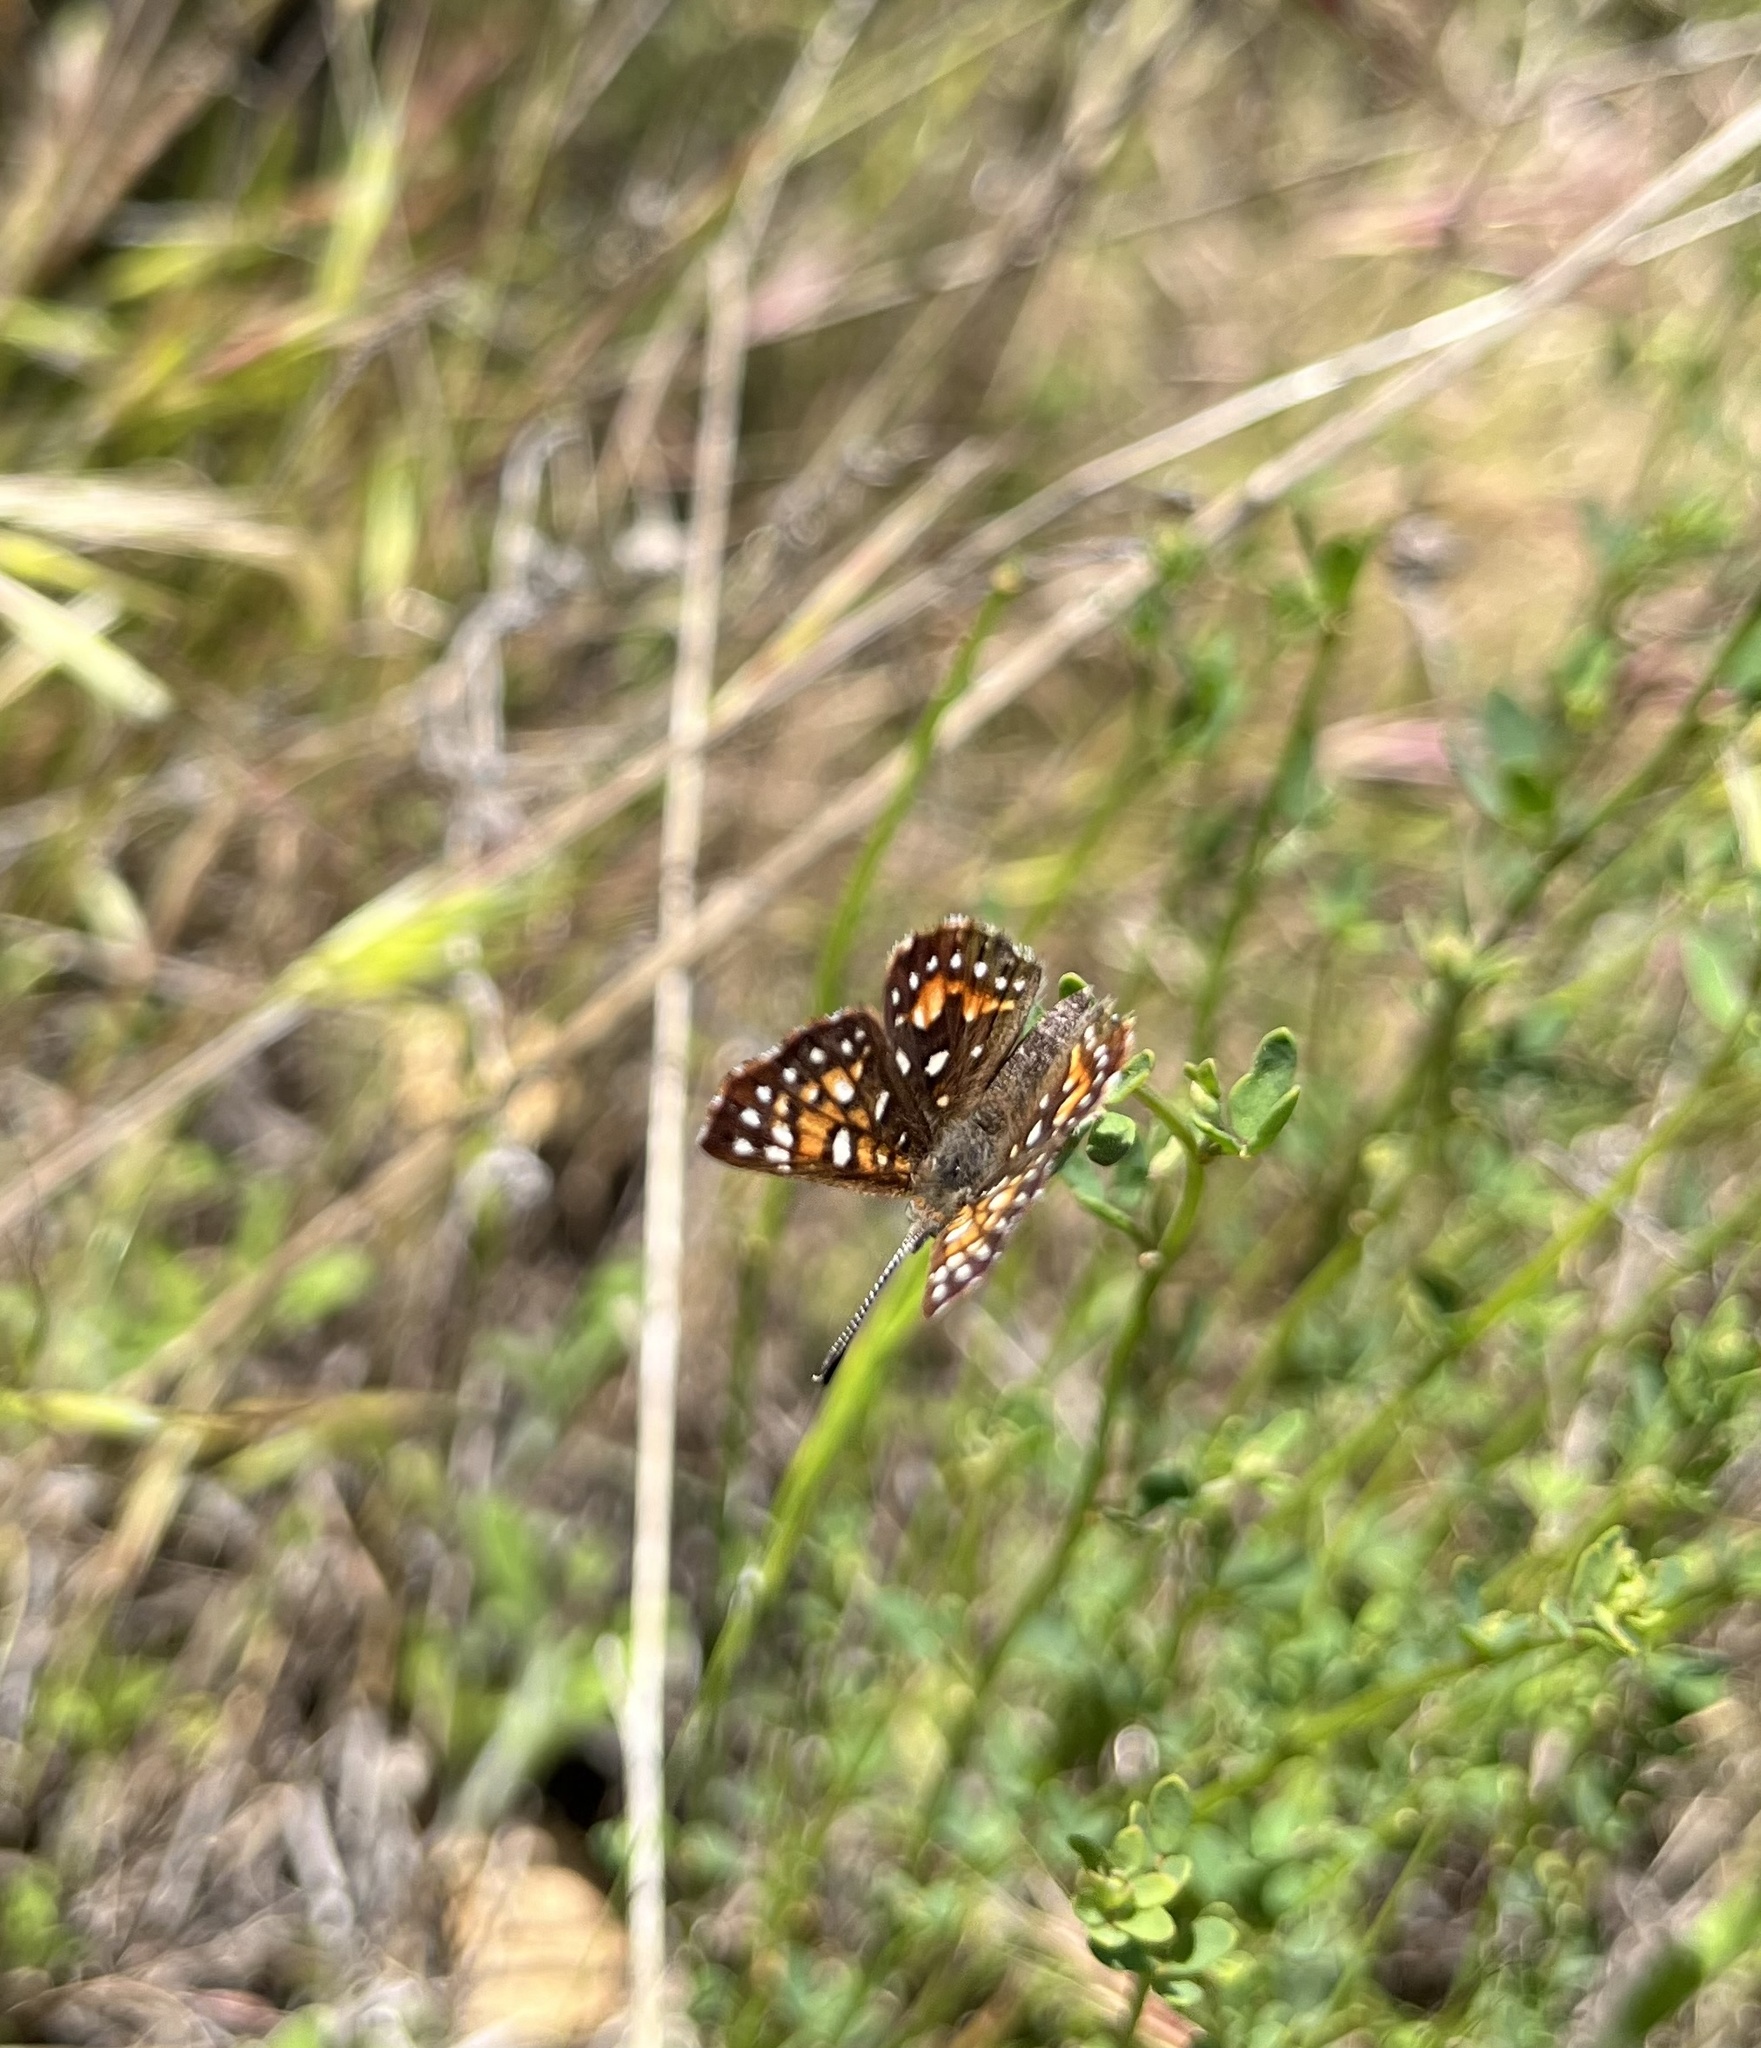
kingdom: Animalia
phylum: Arthropoda
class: Insecta
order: Lepidoptera
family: Riodinidae
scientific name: Riodinidae
